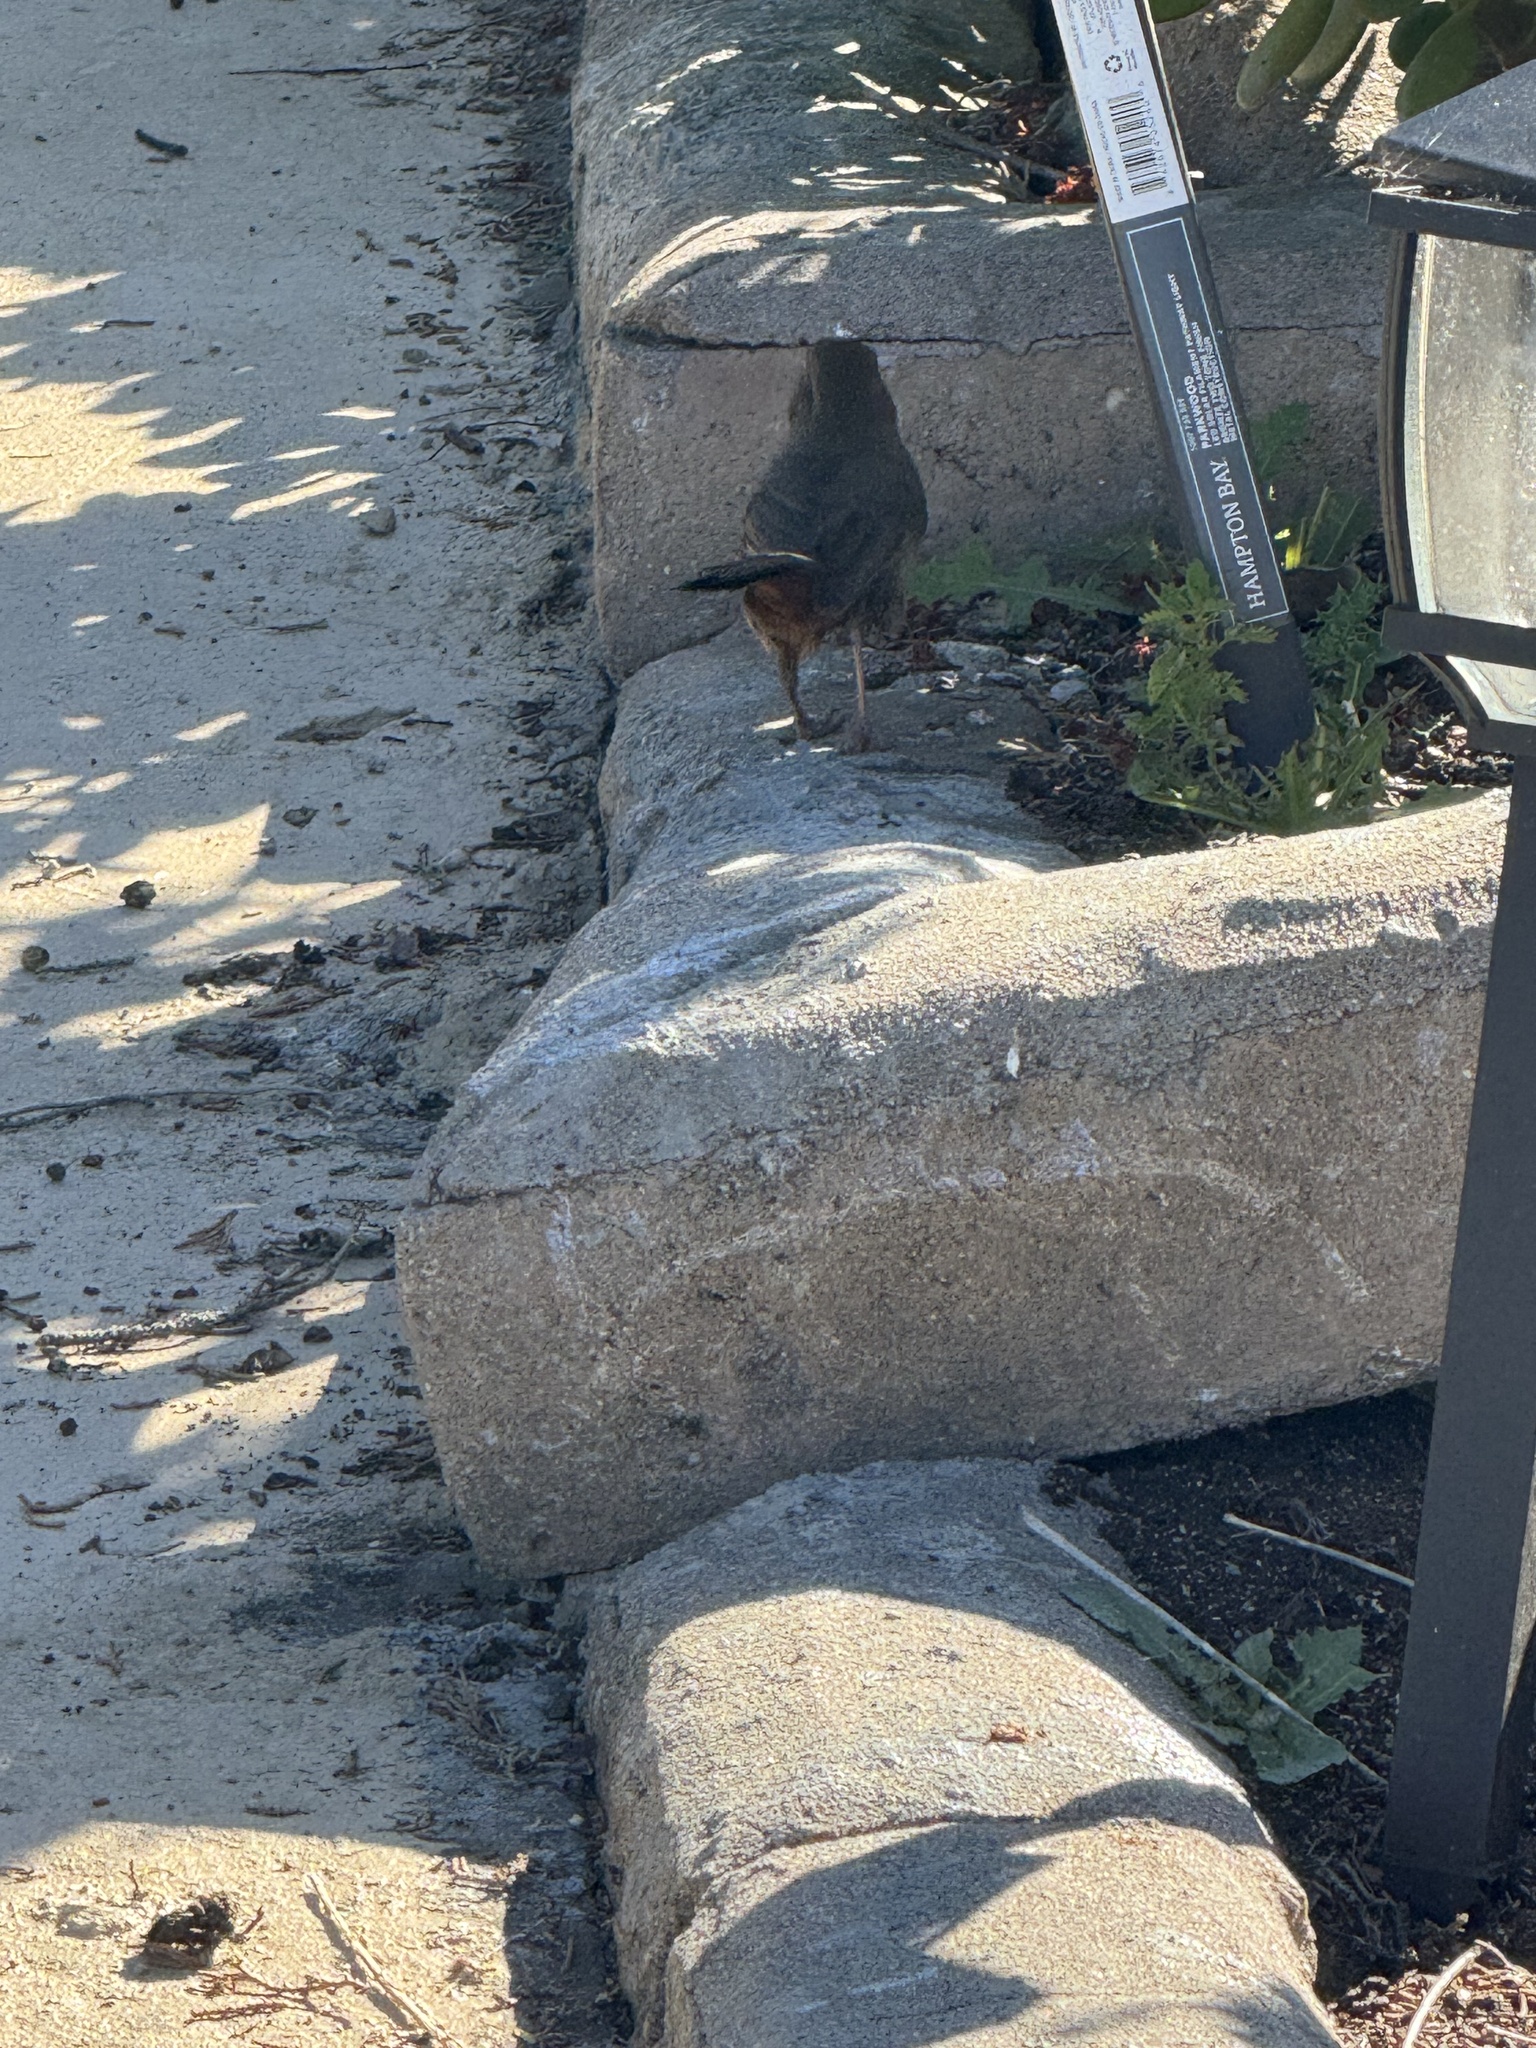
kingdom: Animalia
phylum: Chordata
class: Aves
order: Passeriformes
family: Passerellidae
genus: Melozone
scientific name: Melozone crissalis
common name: California towhee
